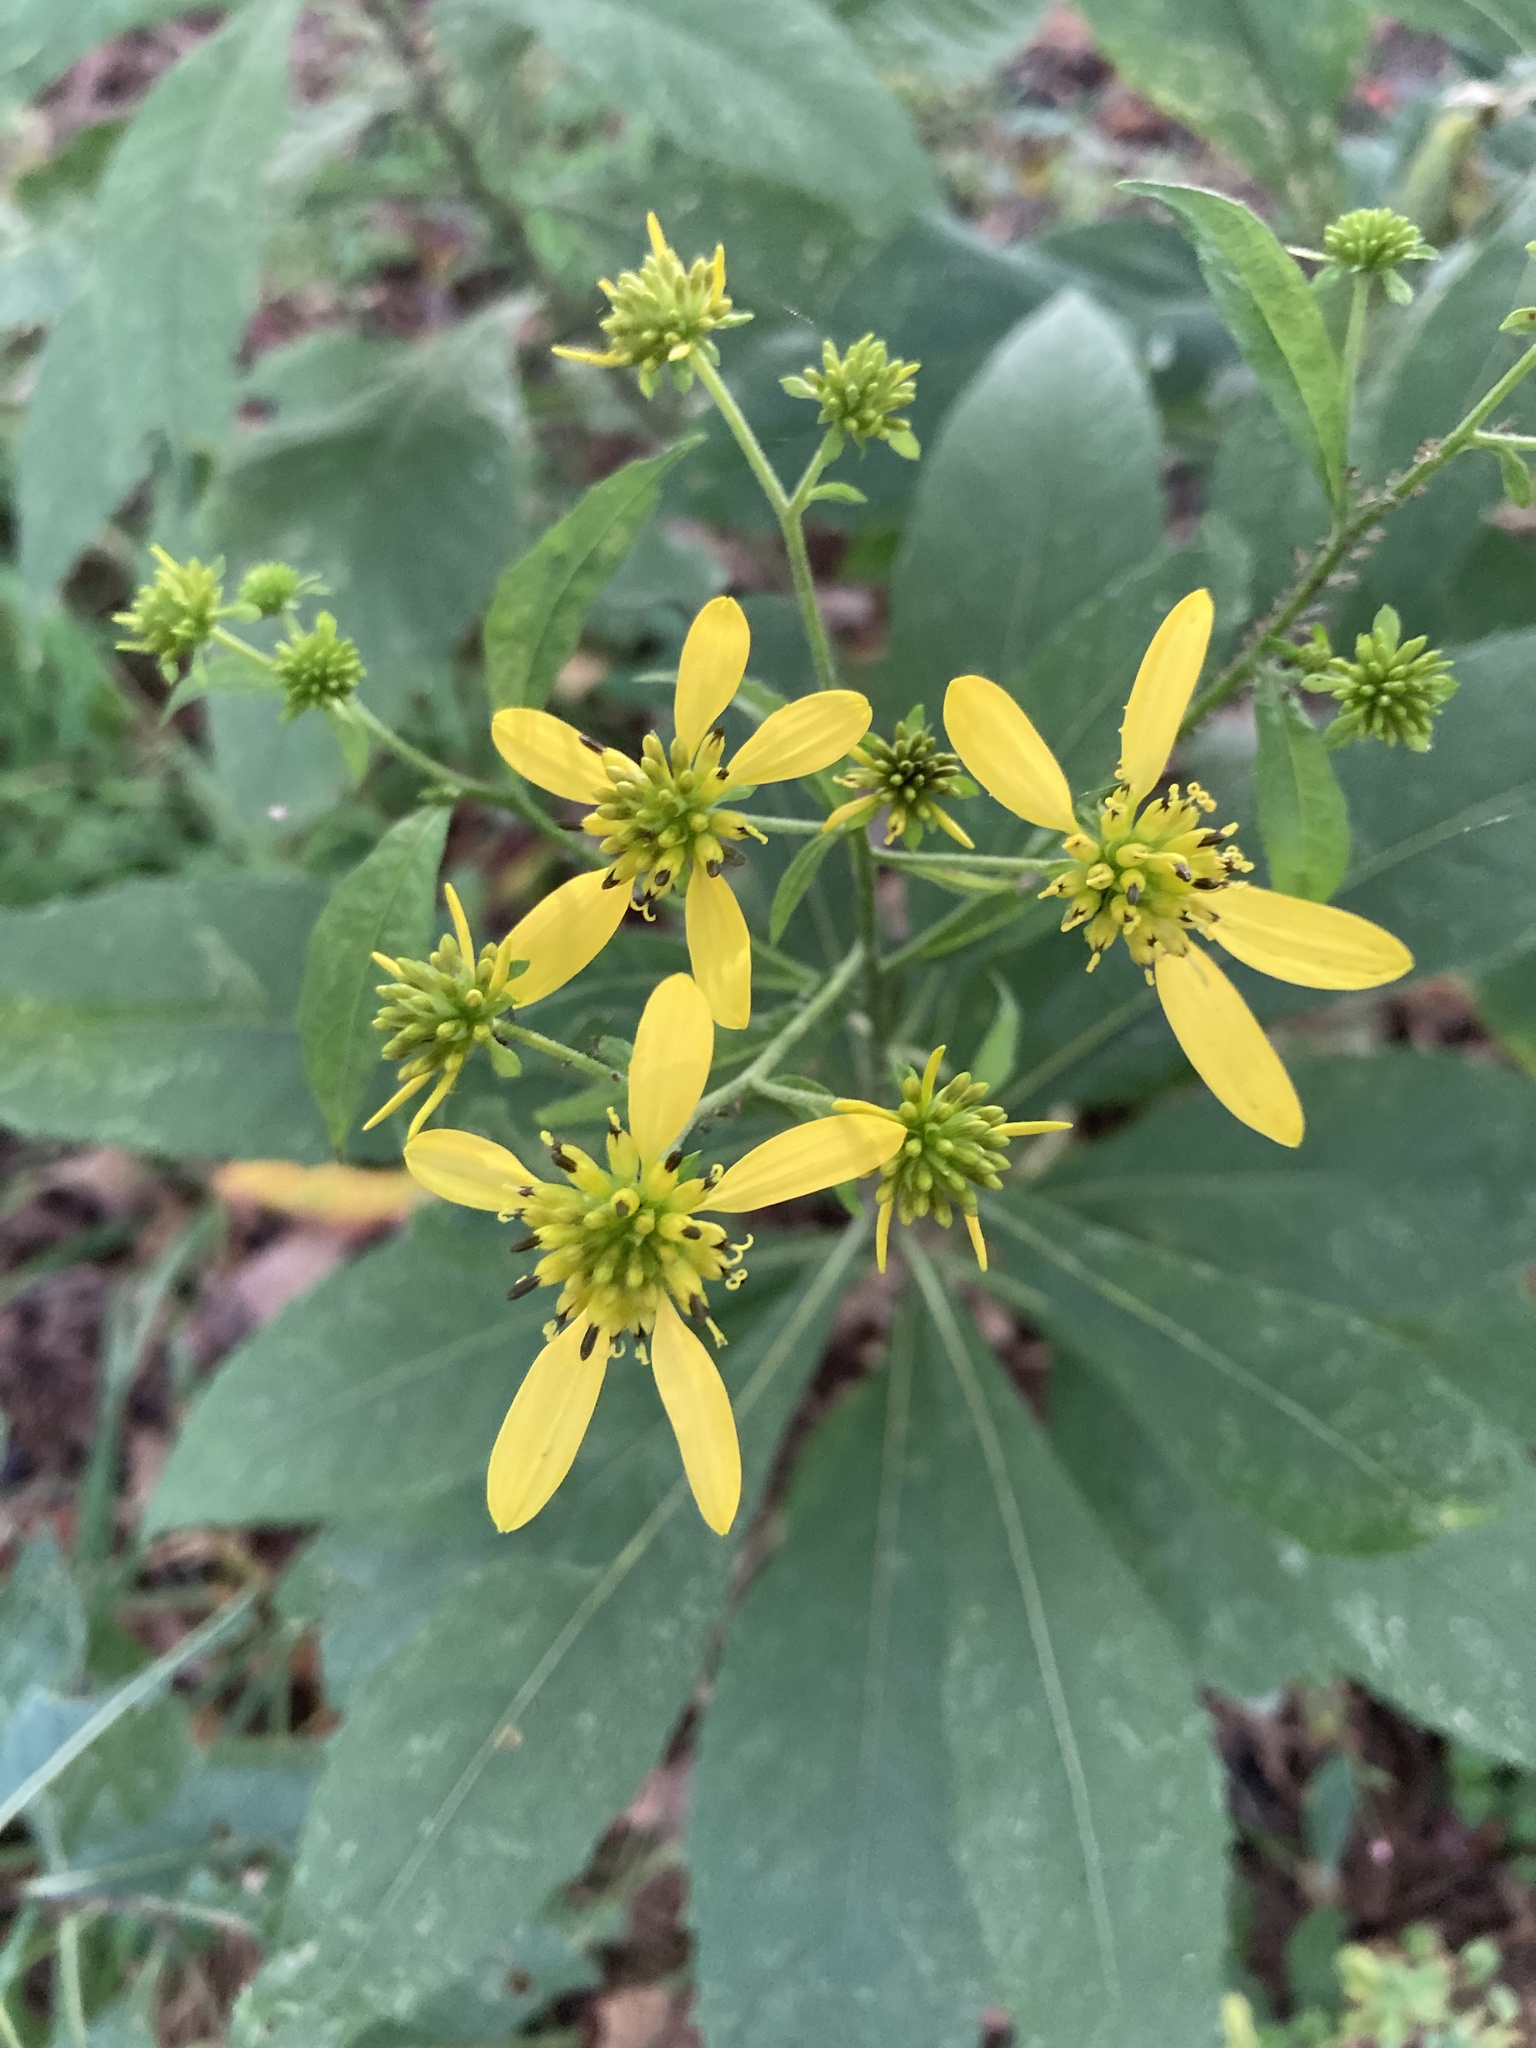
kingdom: Plantae
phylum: Tracheophyta
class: Magnoliopsida
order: Asterales
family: Asteraceae
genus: Verbesina
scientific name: Verbesina alternifolia
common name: Wingstem
